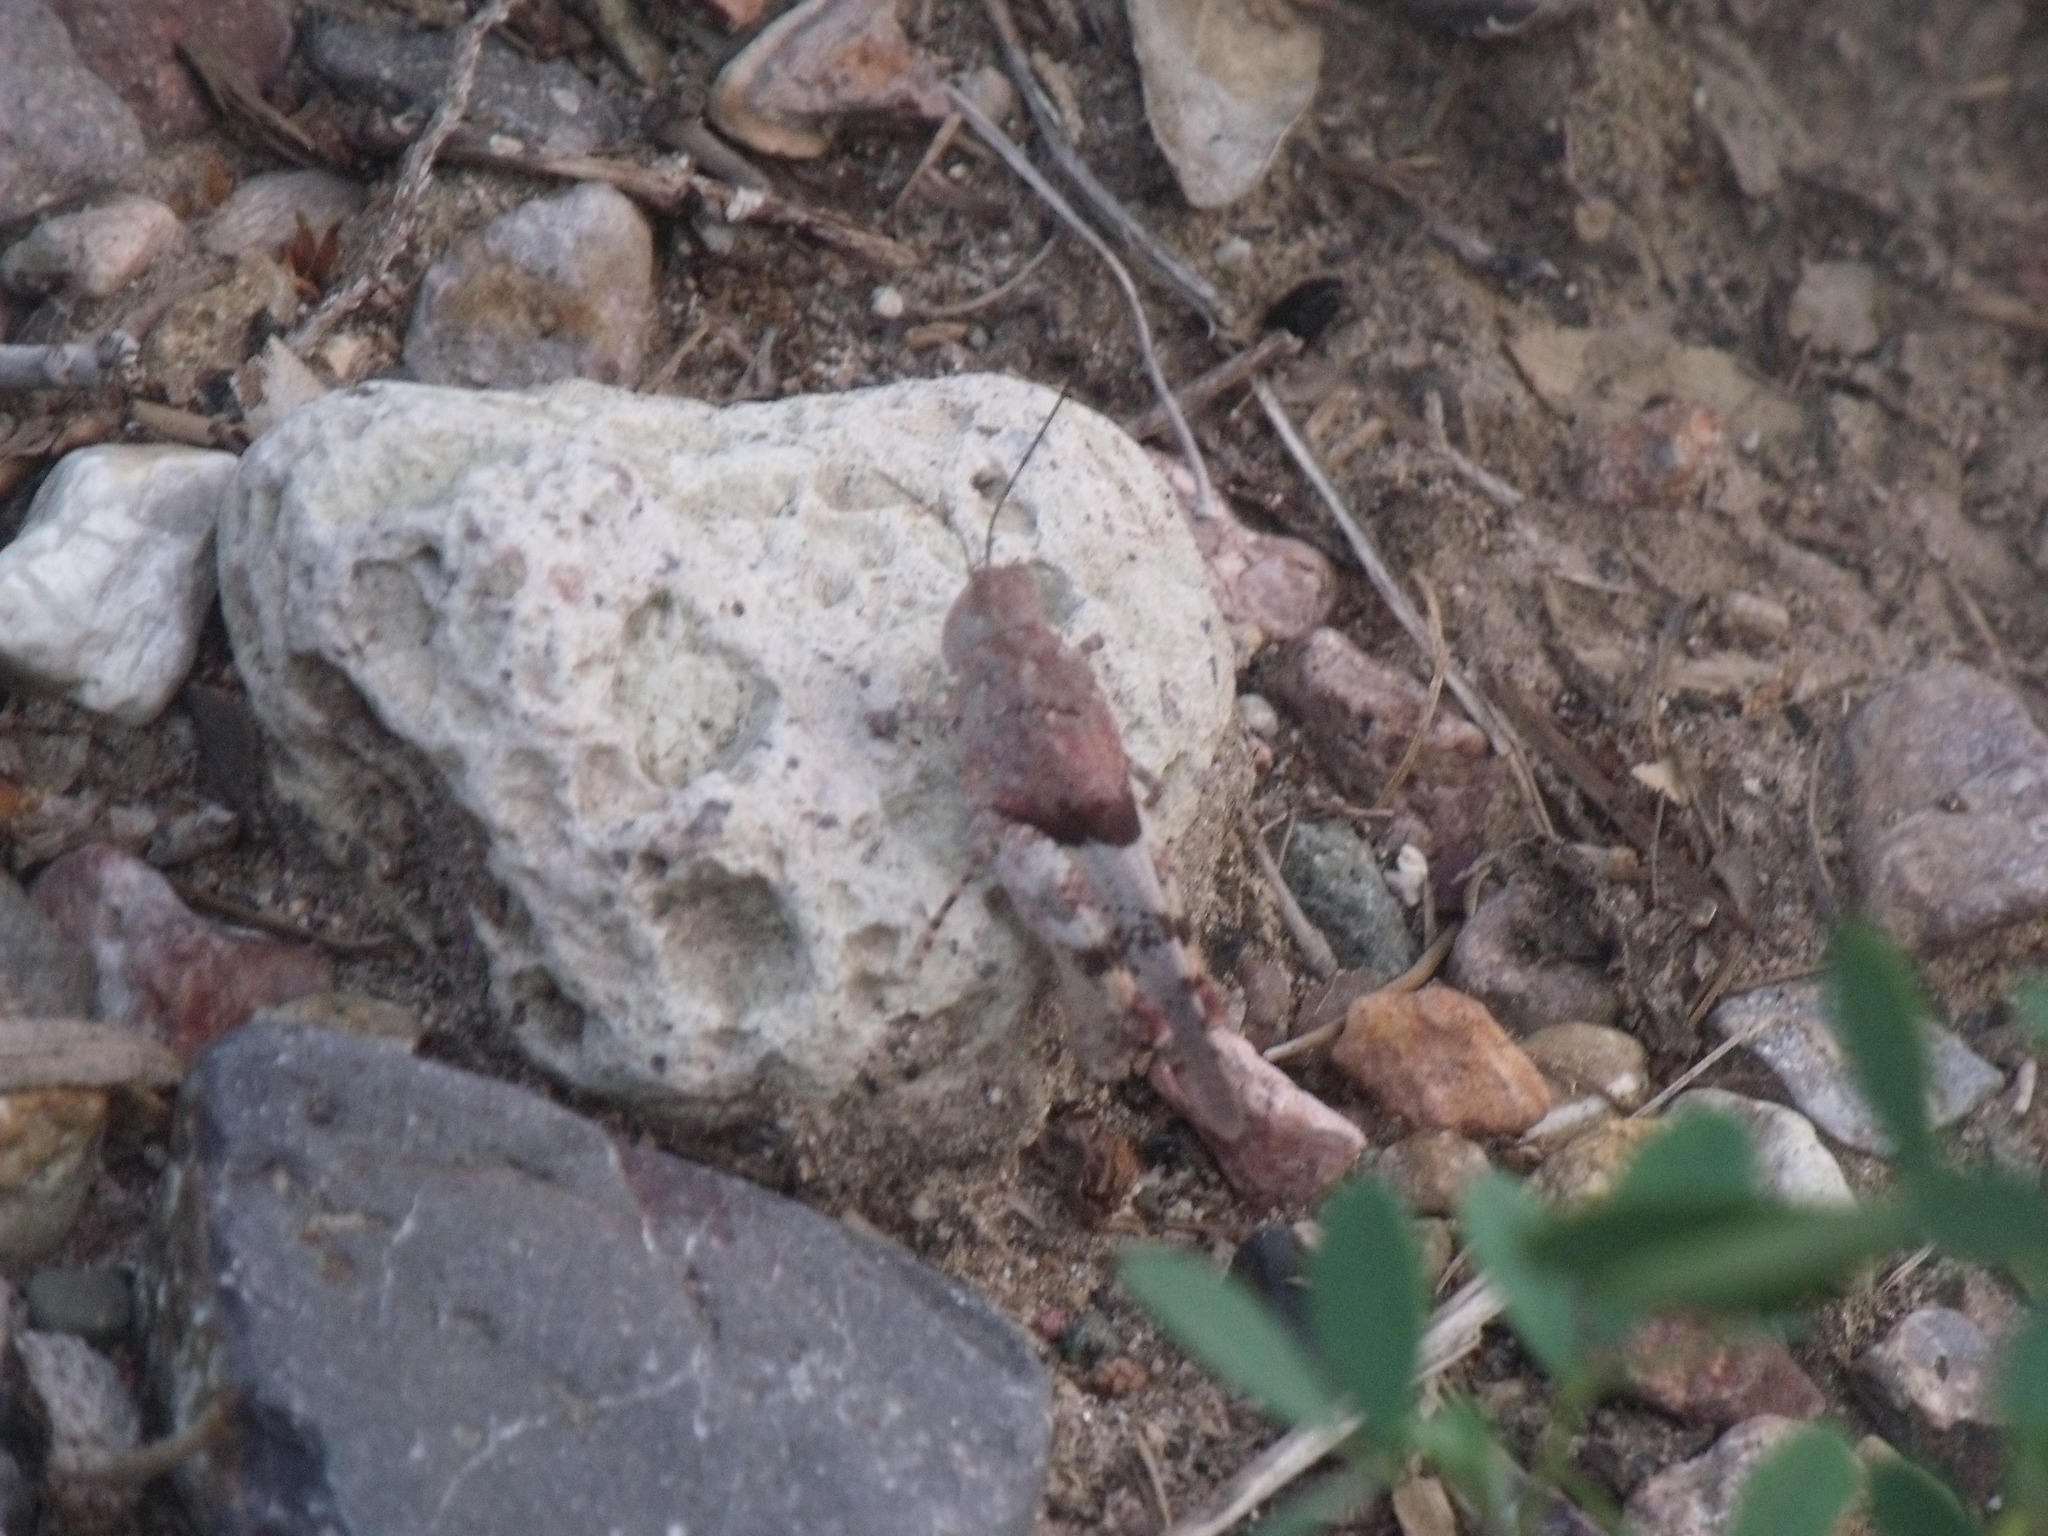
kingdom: Animalia
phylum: Arthropoda
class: Insecta
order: Orthoptera
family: Acrididae
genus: Heliastus
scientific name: Heliastus benjamini
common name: Arroyo grasshopper
